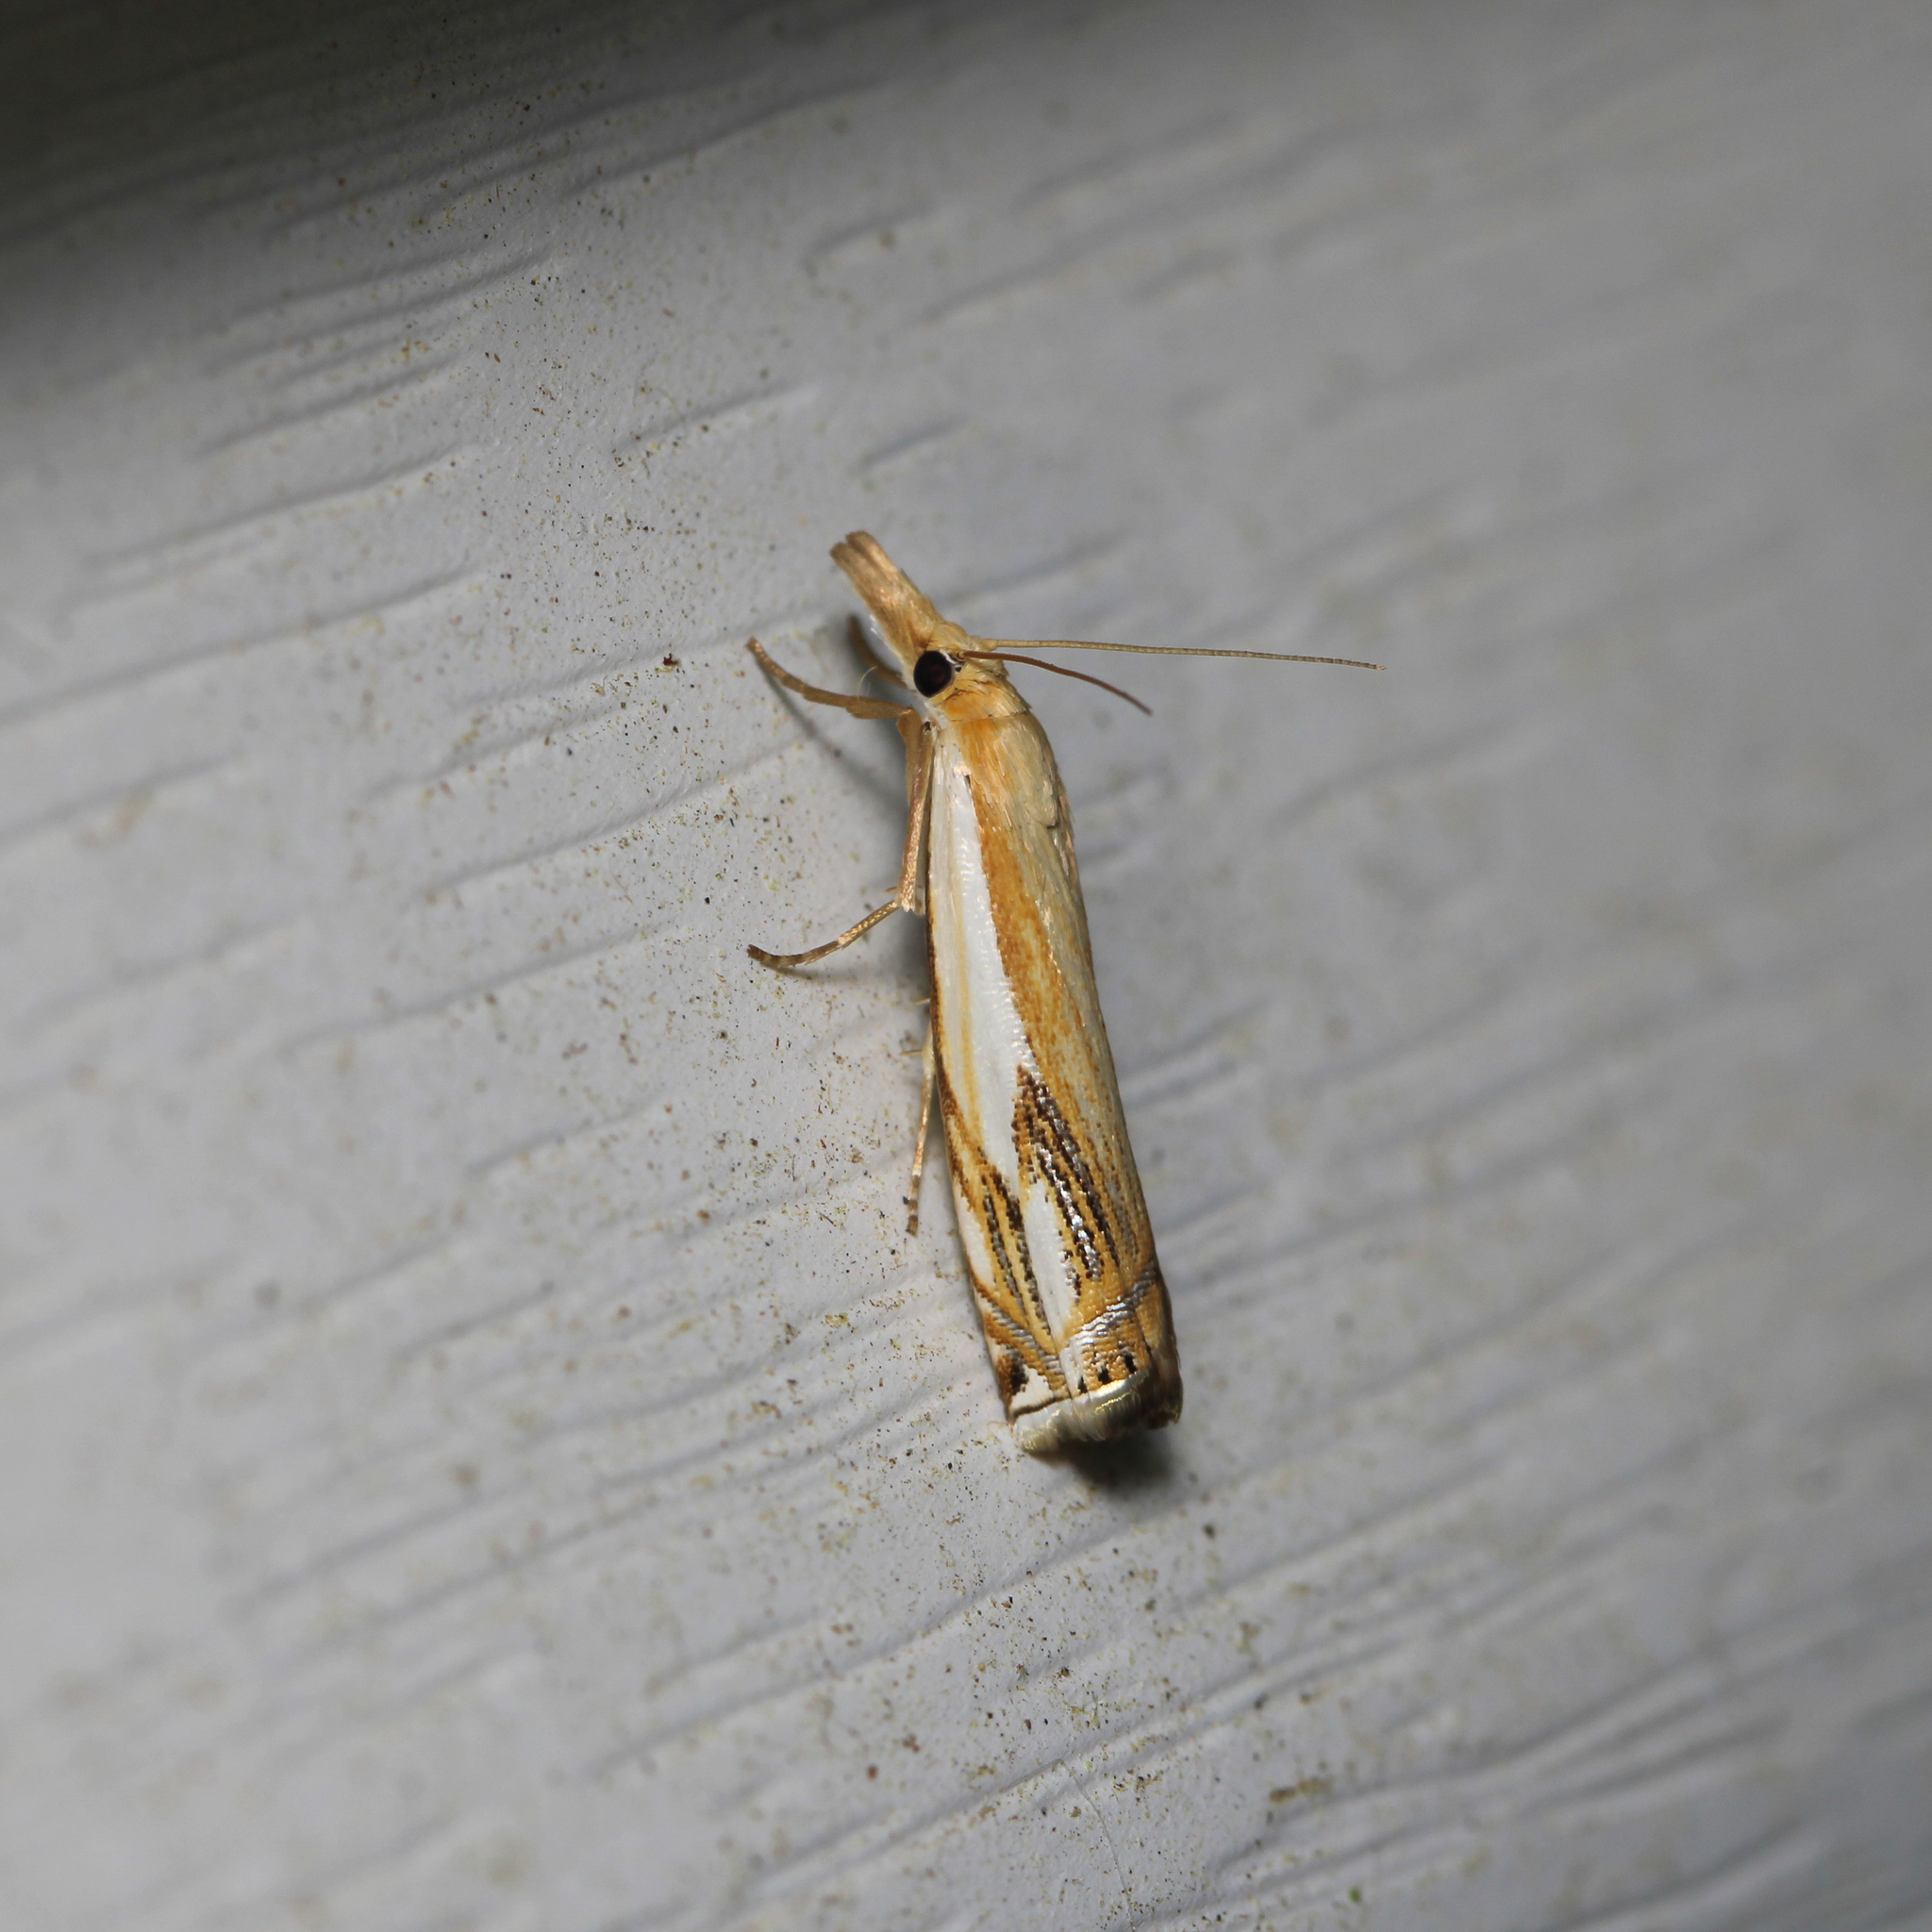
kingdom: Animalia
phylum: Arthropoda
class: Insecta
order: Lepidoptera
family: Crambidae
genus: Crambus
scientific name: Crambus agitatellus
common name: Double-banded grass-veneer
